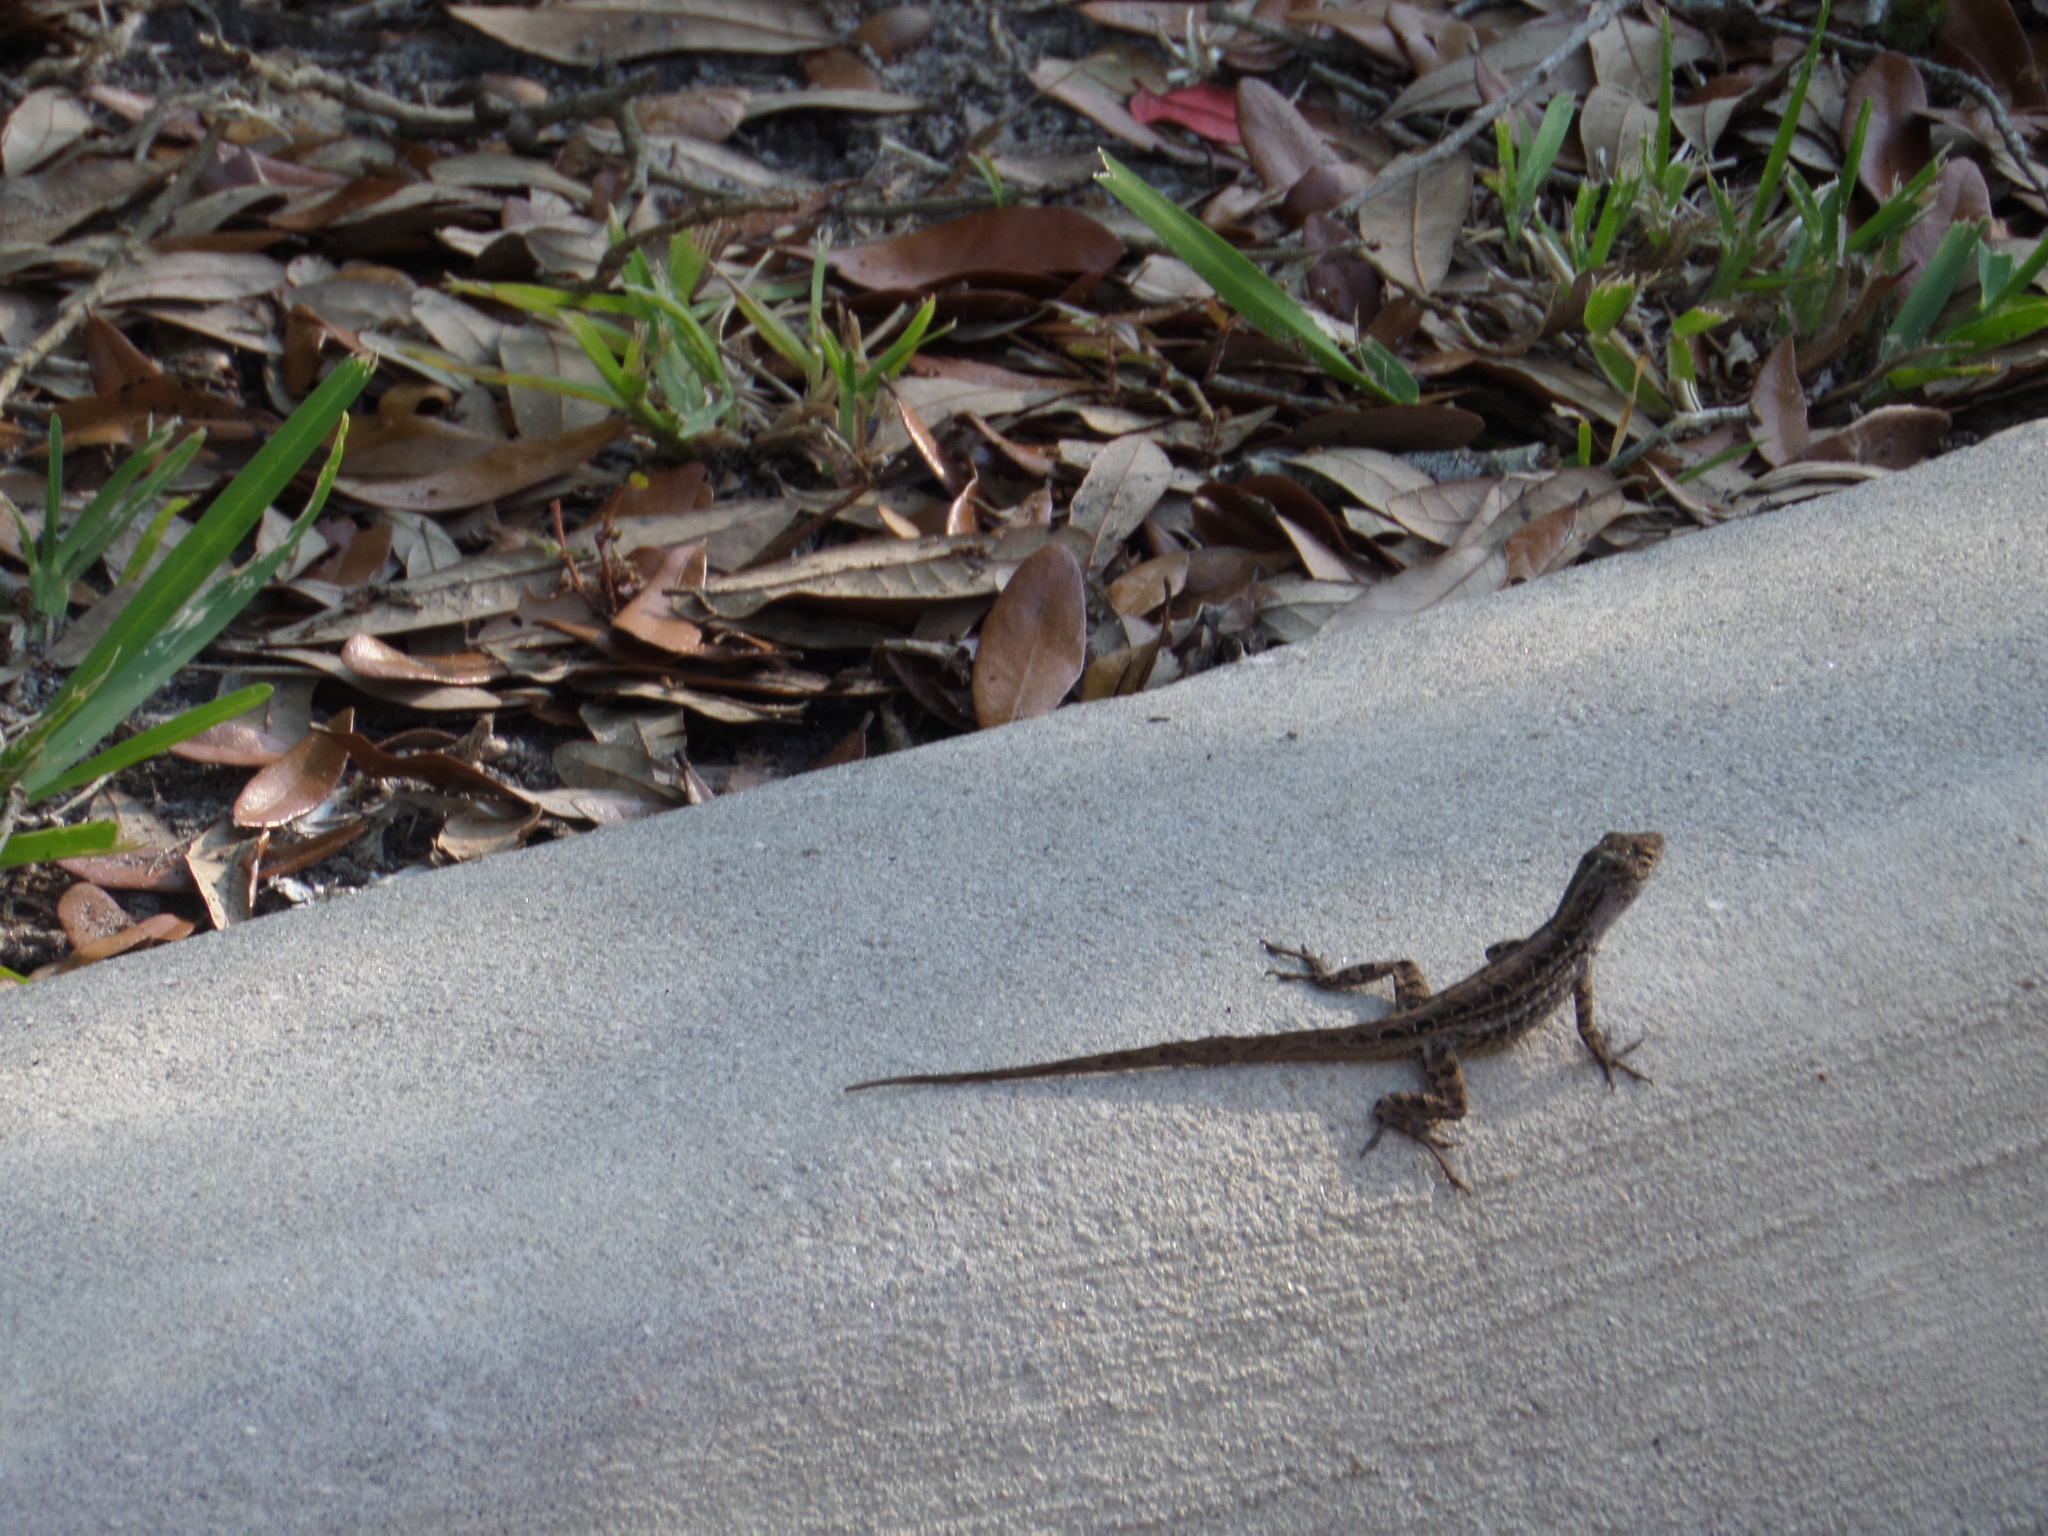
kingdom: Animalia
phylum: Chordata
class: Squamata
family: Dactyloidae
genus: Anolis
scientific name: Anolis sagrei
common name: Brown anole
